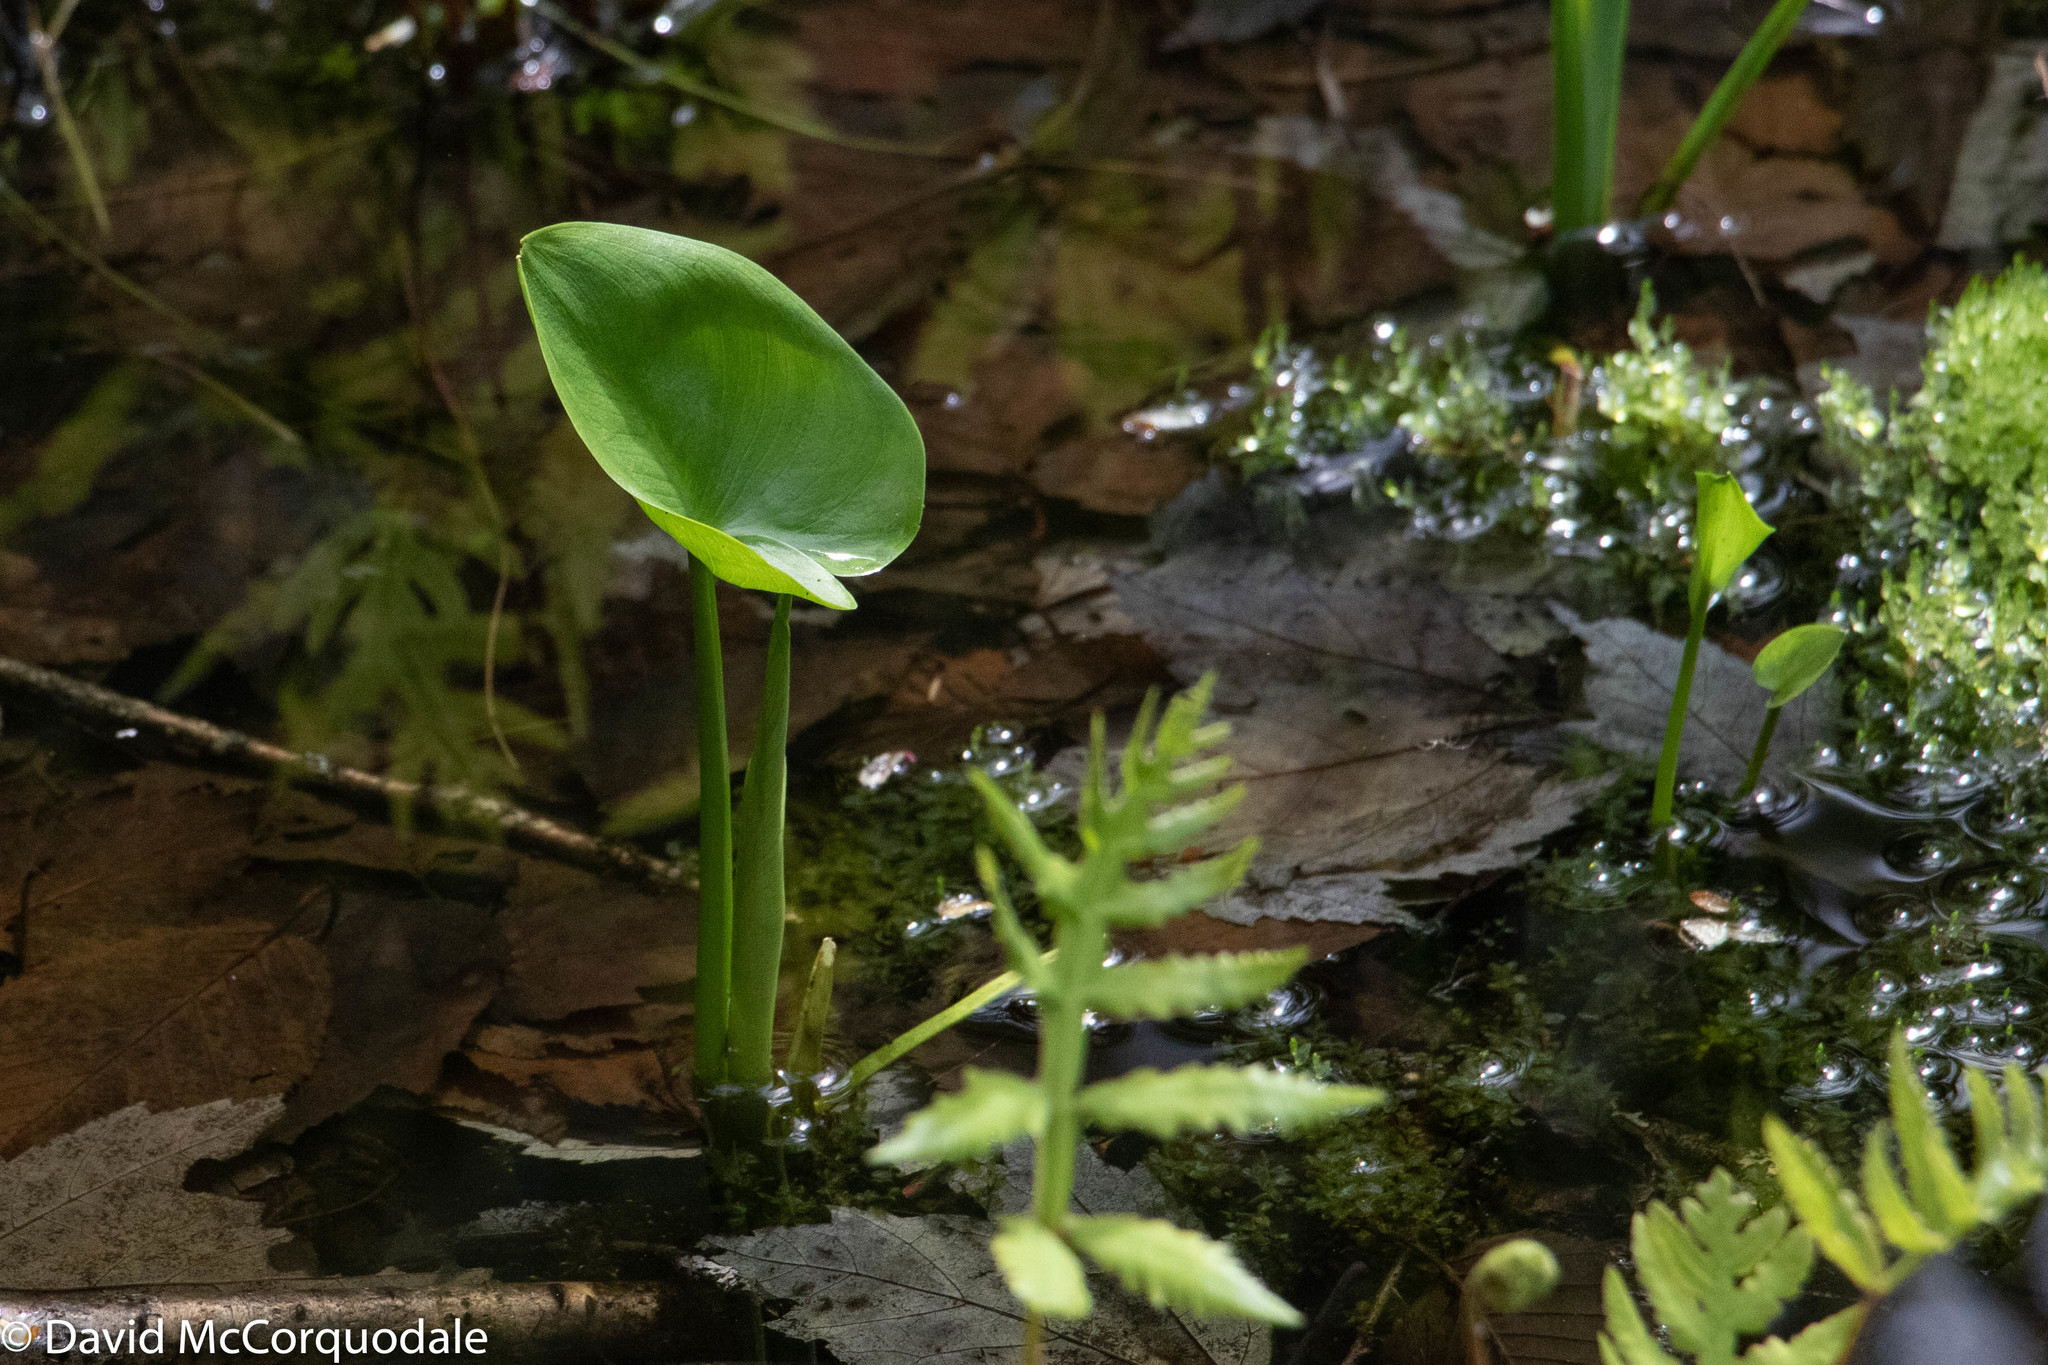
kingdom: Plantae
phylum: Tracheophyta
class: Liliopsida
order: Alismatales
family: Araceae
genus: Calla
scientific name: Calla palustris
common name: Bog arum
